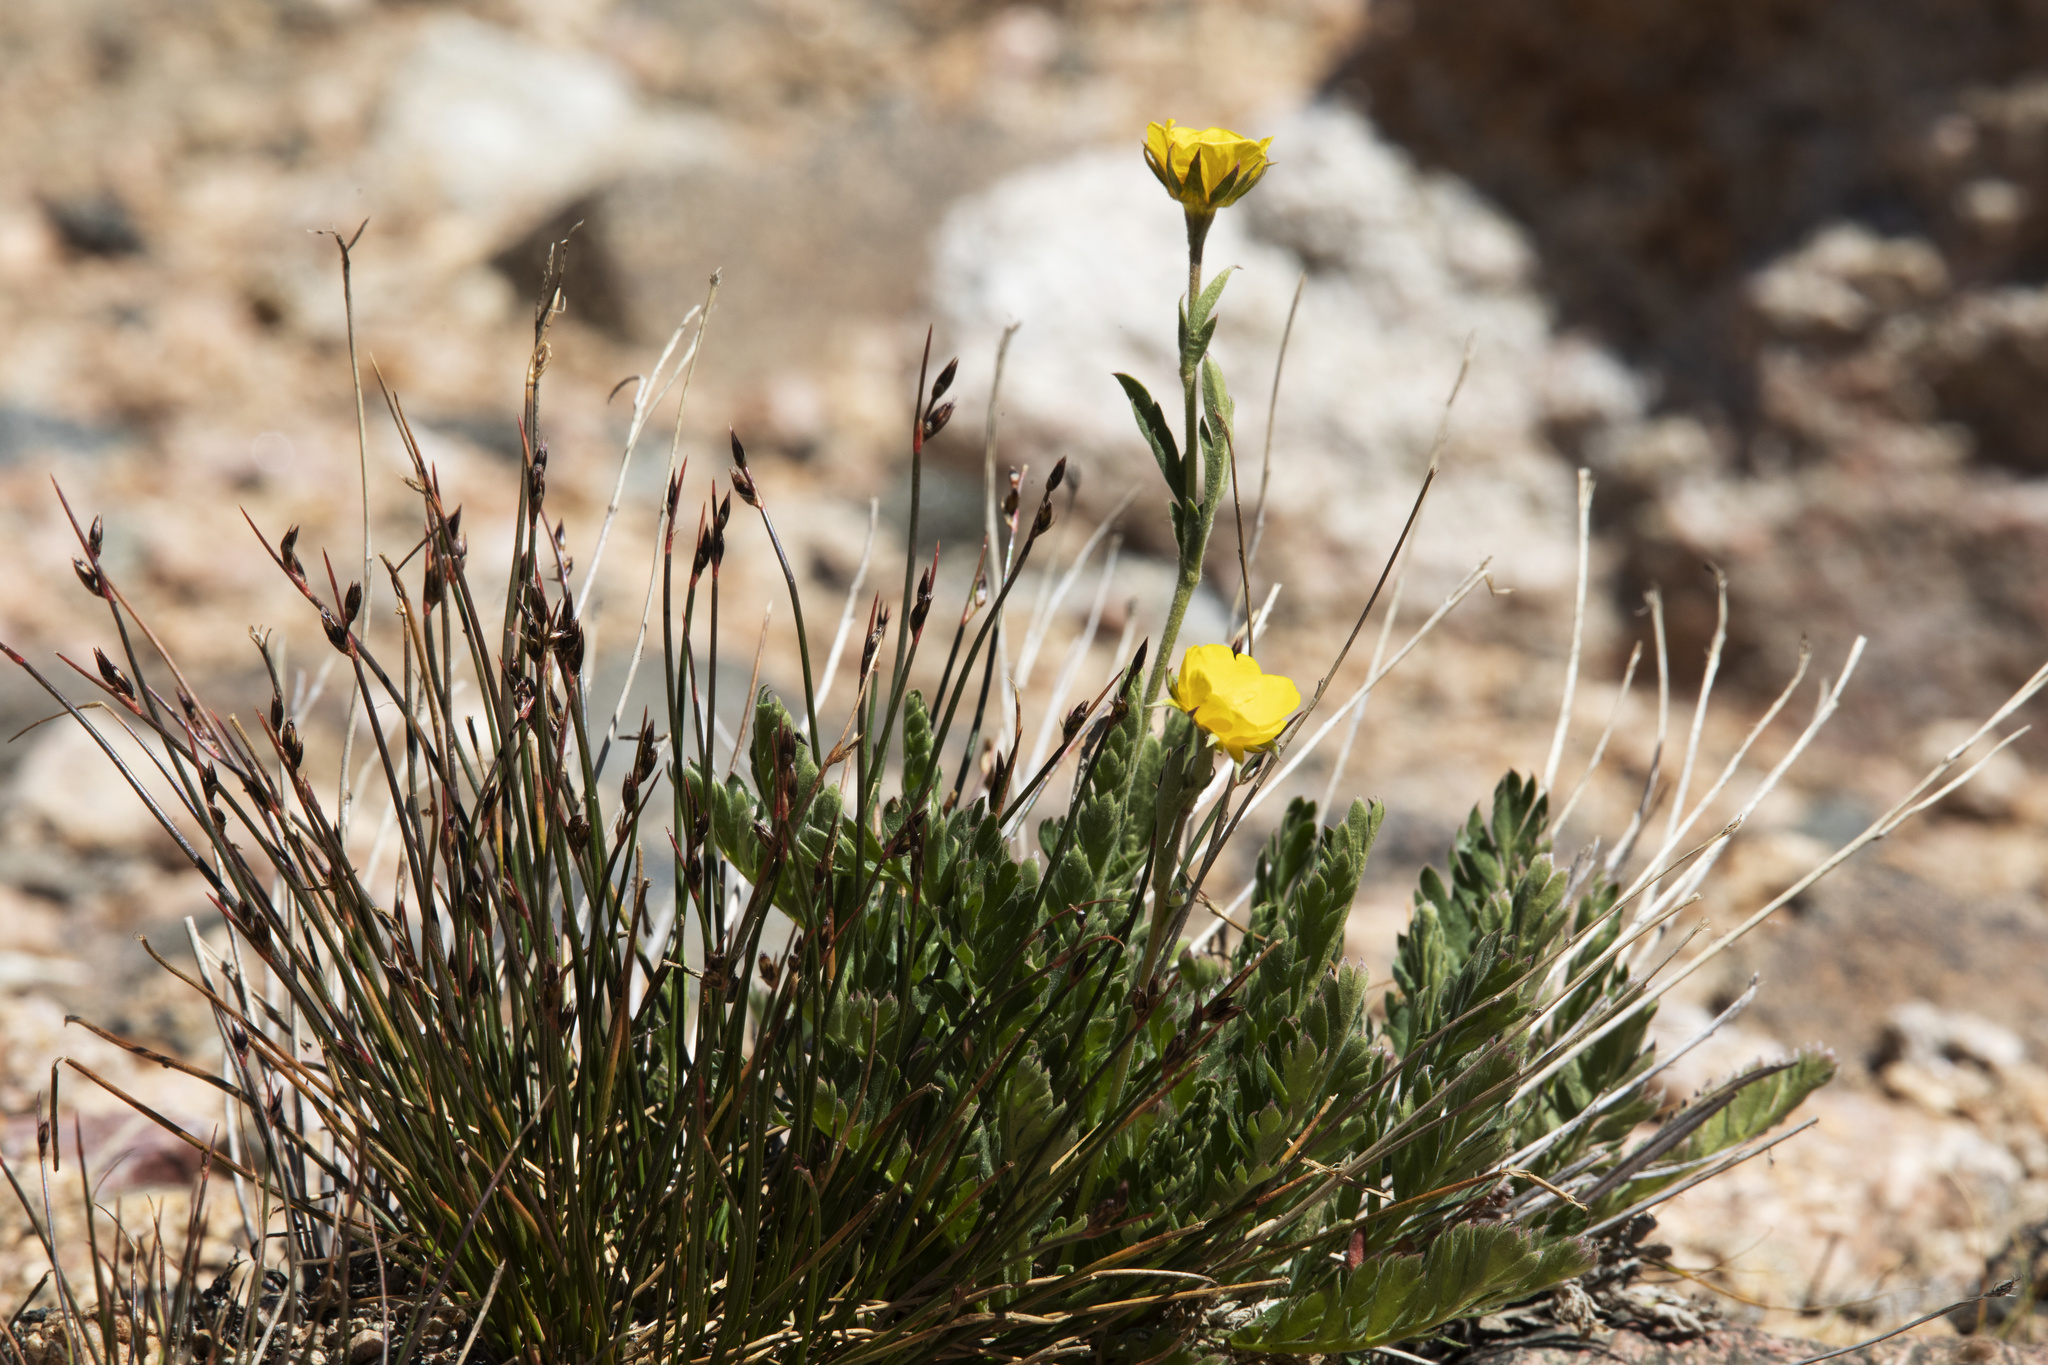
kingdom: Plantae
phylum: Tracheophyta
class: Magnoliopsida
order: Rosales
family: Rosaceae
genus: Geum
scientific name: Geum rossii
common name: Alpine avens
